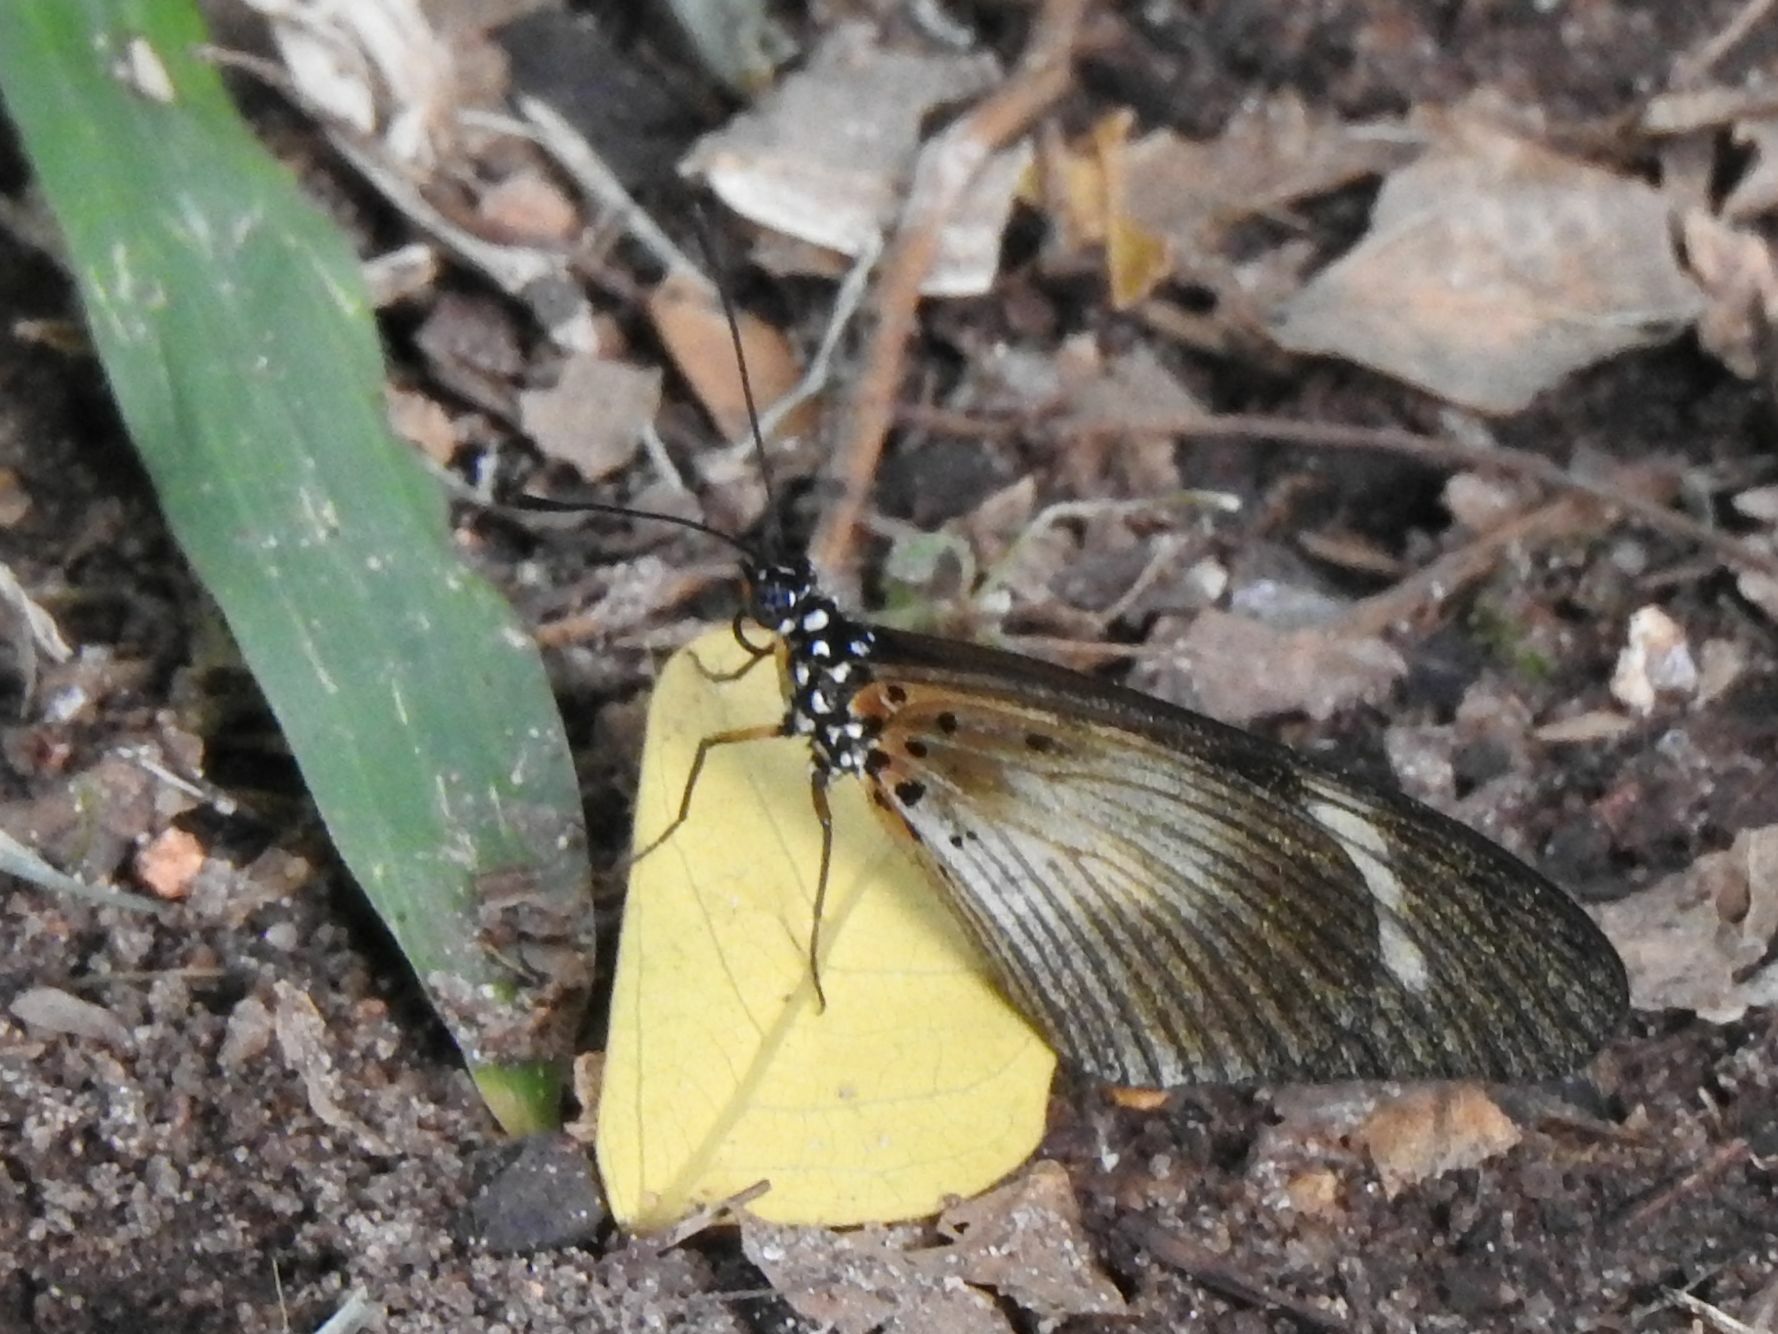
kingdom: Animalia
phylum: Arthropoda
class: Insecta
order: Lepidoptera
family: Nymphalidae
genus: Acraea
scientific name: Acraea esebria
